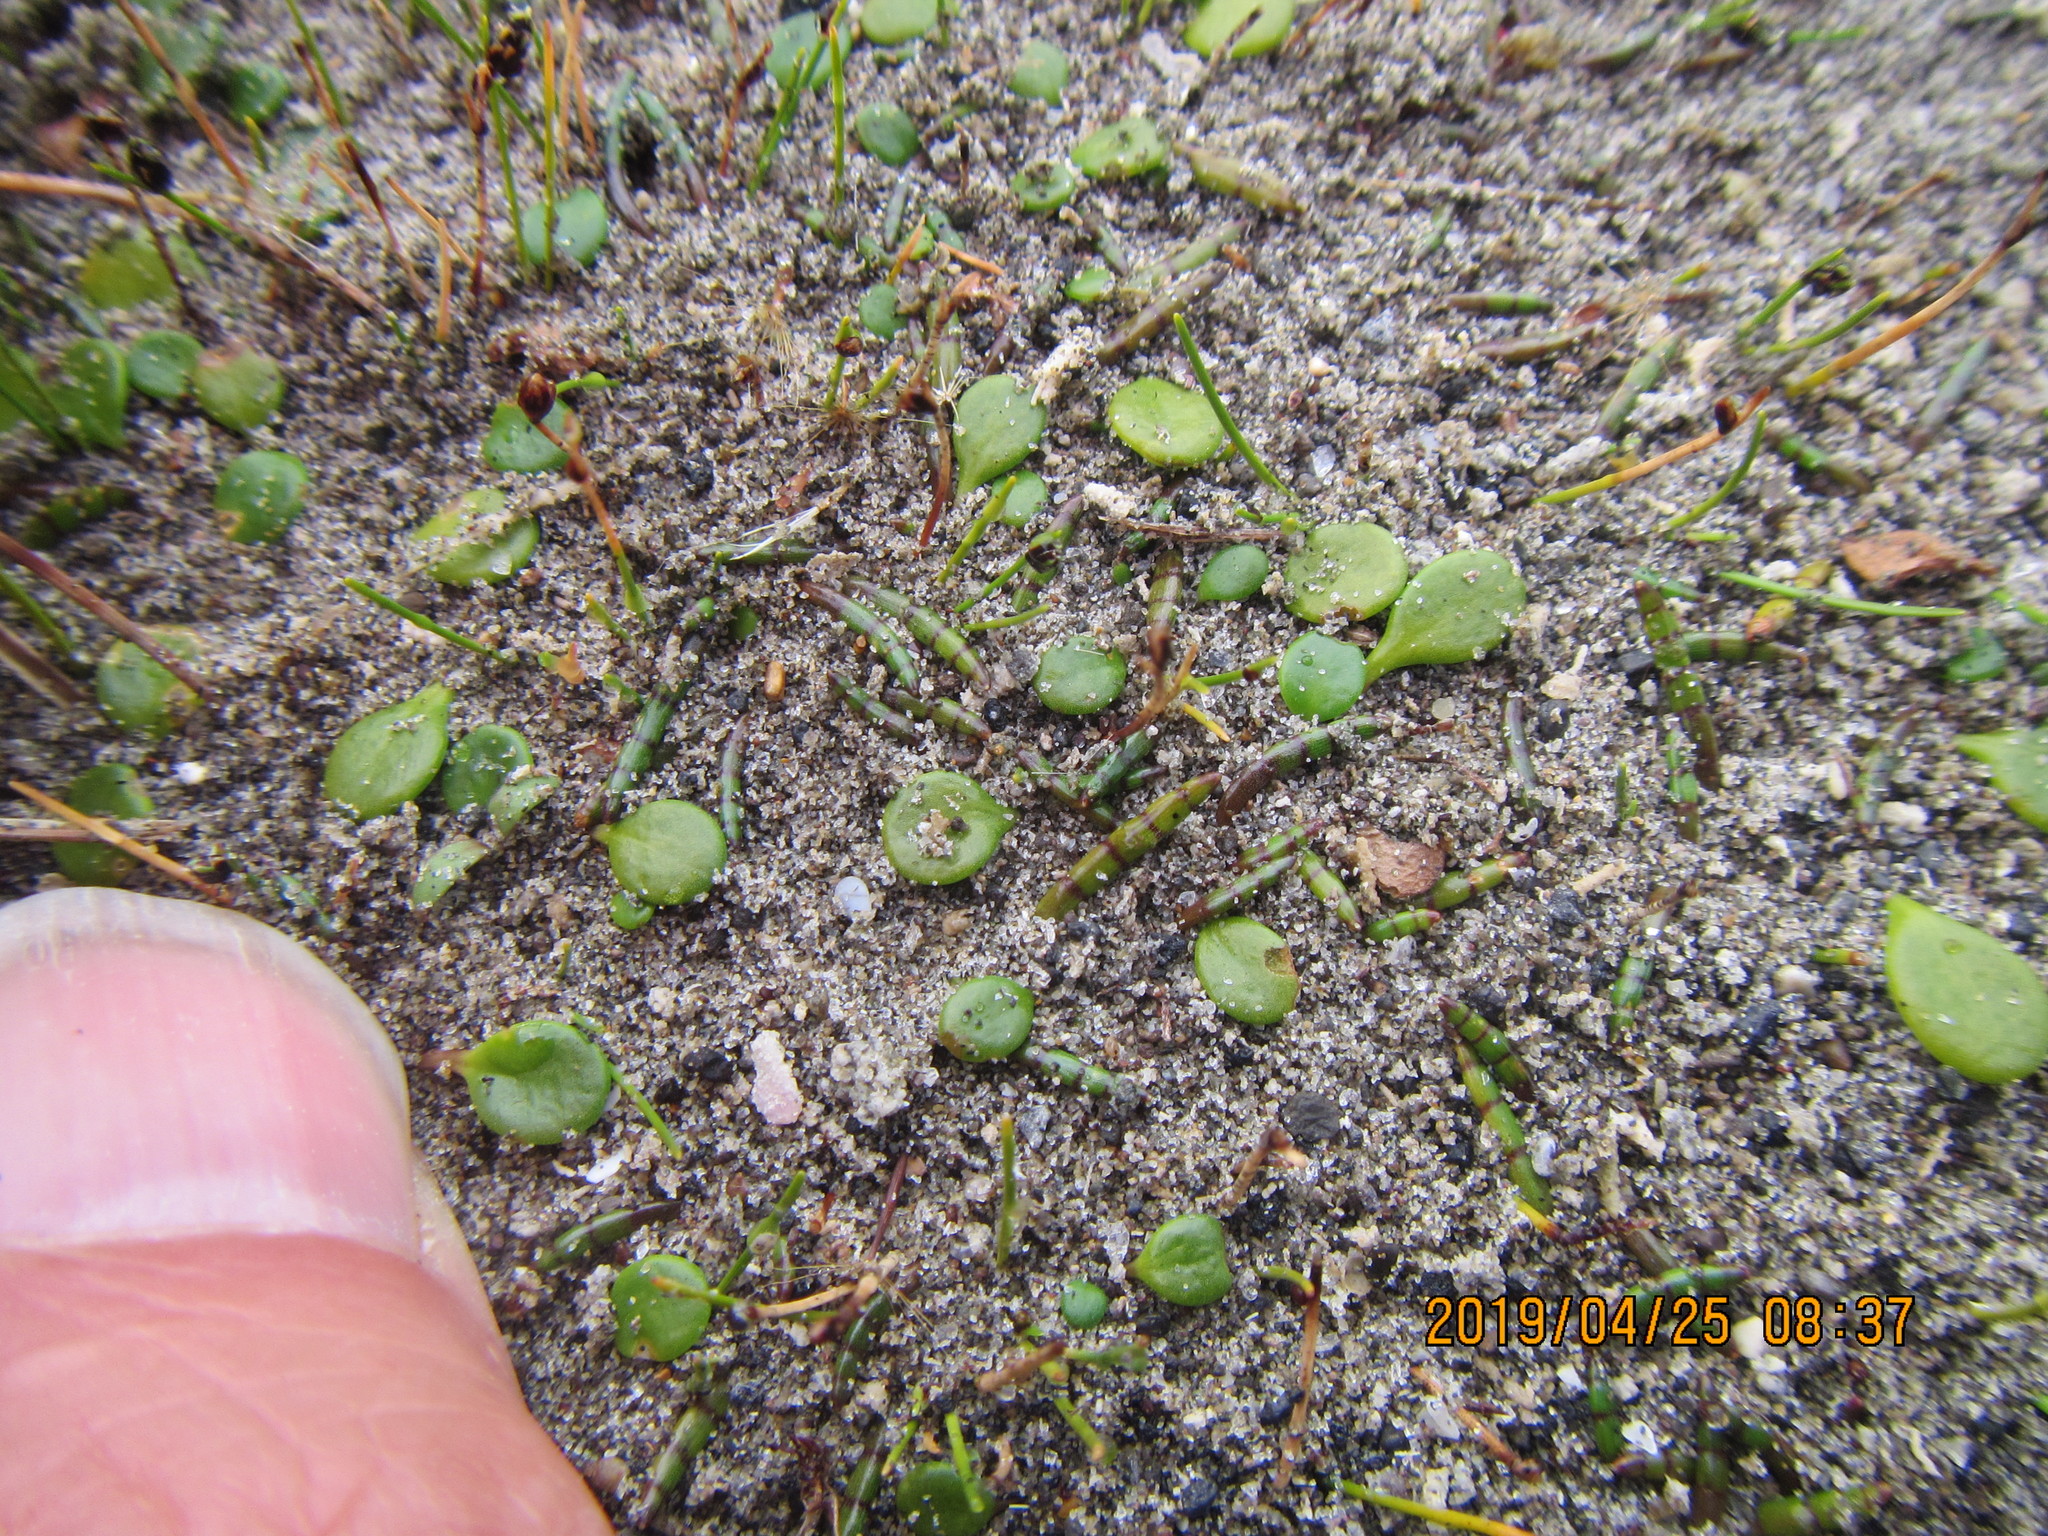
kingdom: Plantae
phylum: Tracheophyta
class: Magnoliopsida
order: Apiales
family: Apiaceae
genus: Lilaeopsis
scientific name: Lilaeopsis novae-zelandiae
